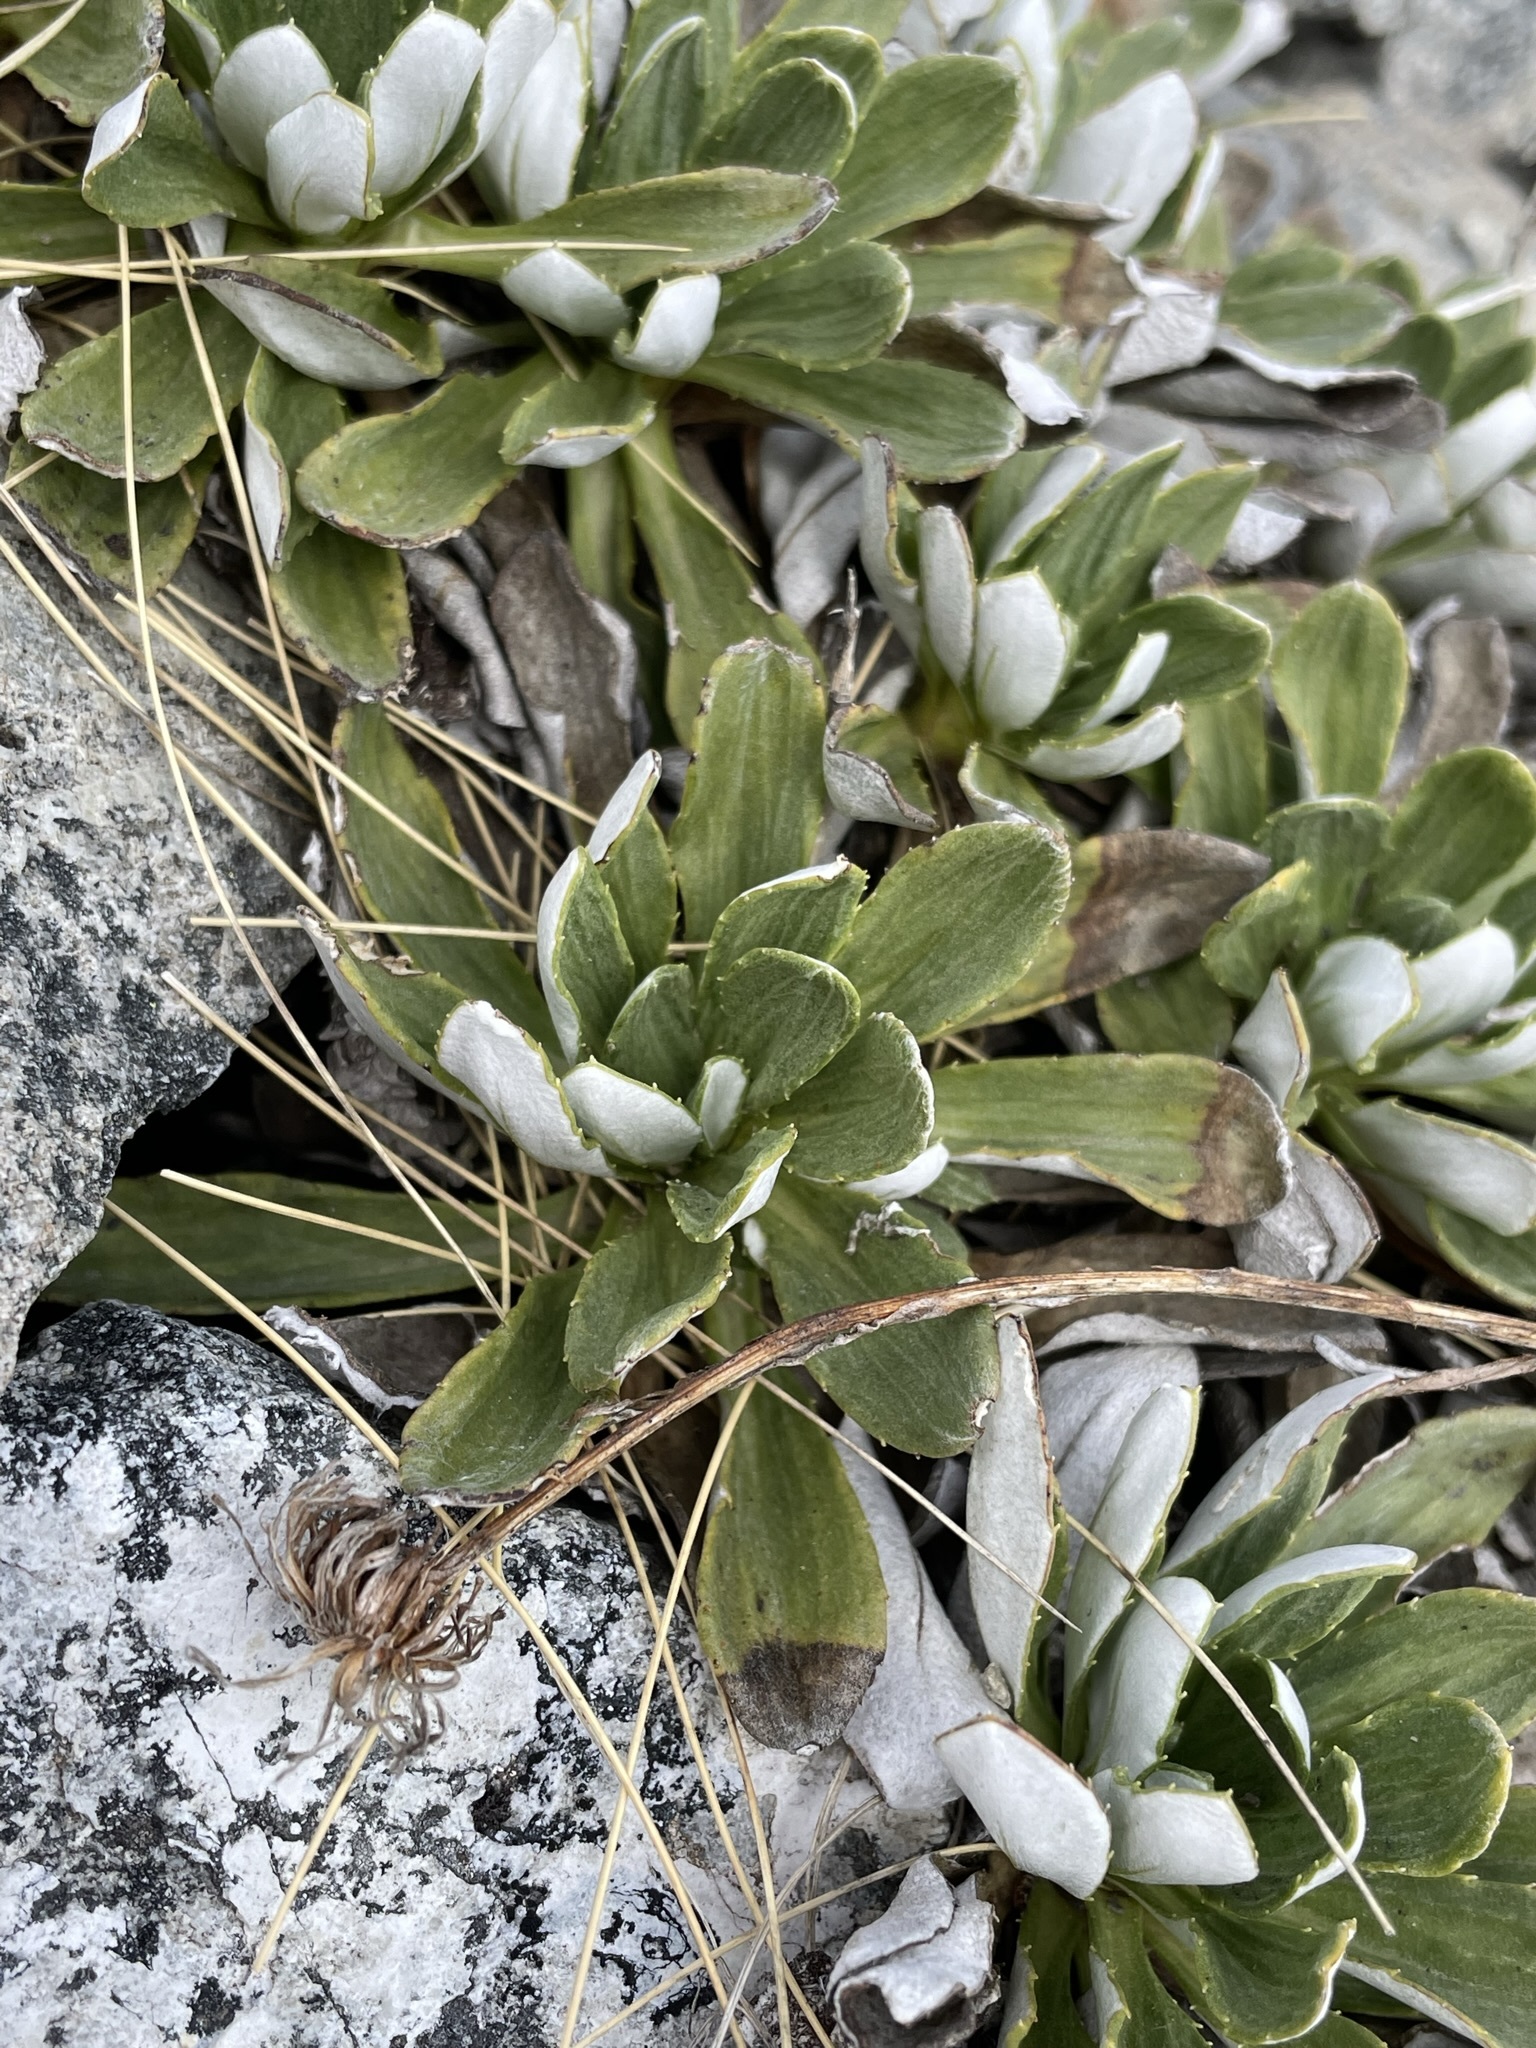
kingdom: Plantae
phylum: Tracheophyta
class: Magnoliopsida
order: Asterales
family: Asteraceae
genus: Celmisia
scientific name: Celmisia discolor
